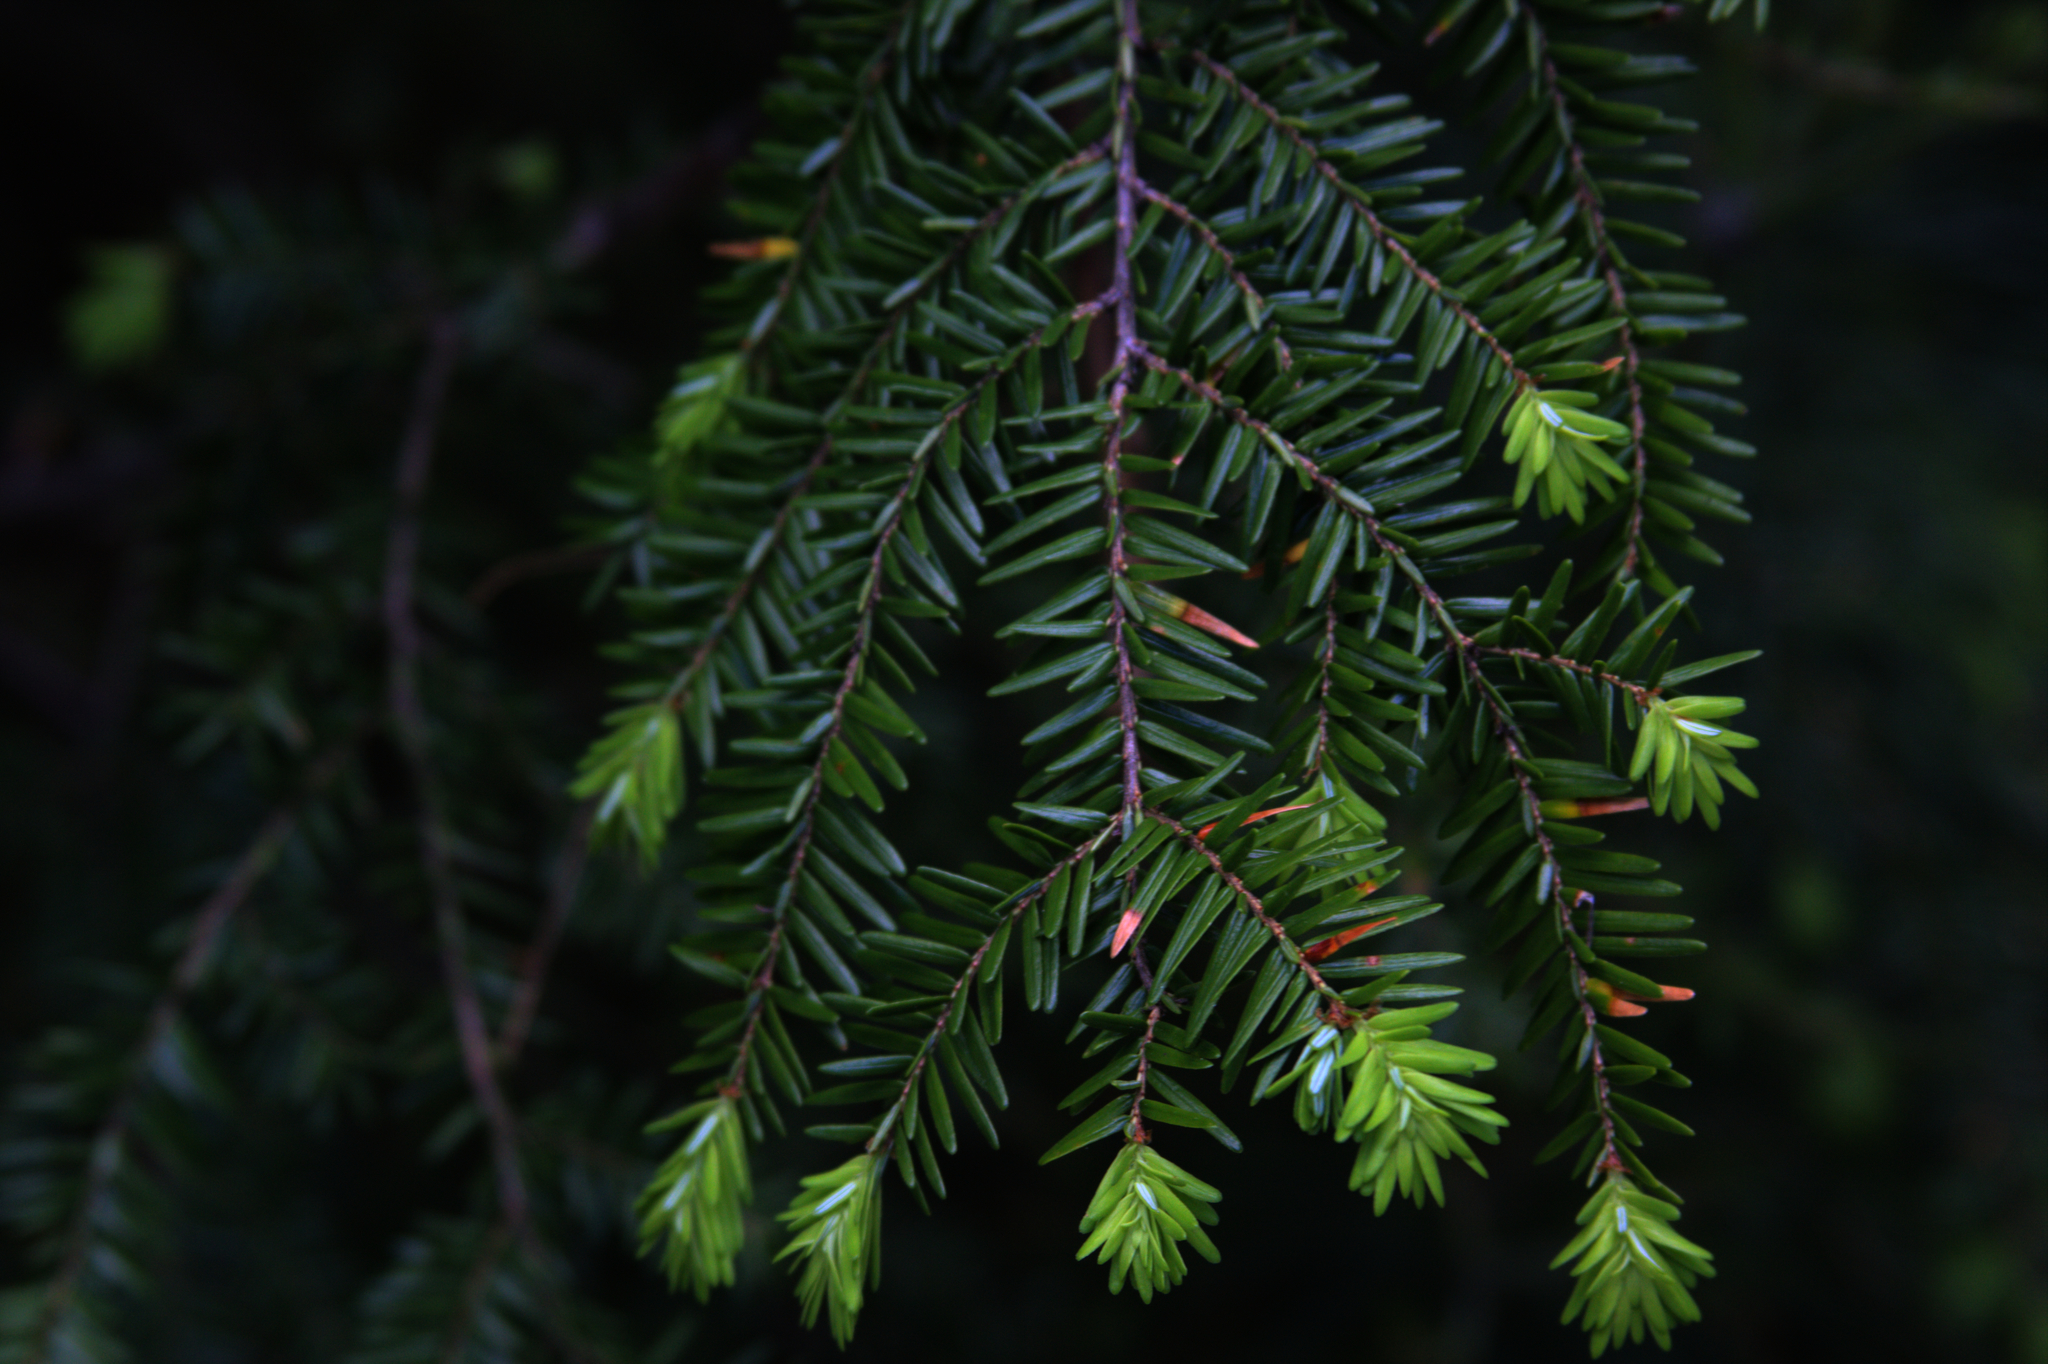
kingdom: Plantae
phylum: Tracheophyta
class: Pinopsida
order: Pinales
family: Pinaceae
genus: Tsuga
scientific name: Tsuga canadensis
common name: Eastern hemlock
